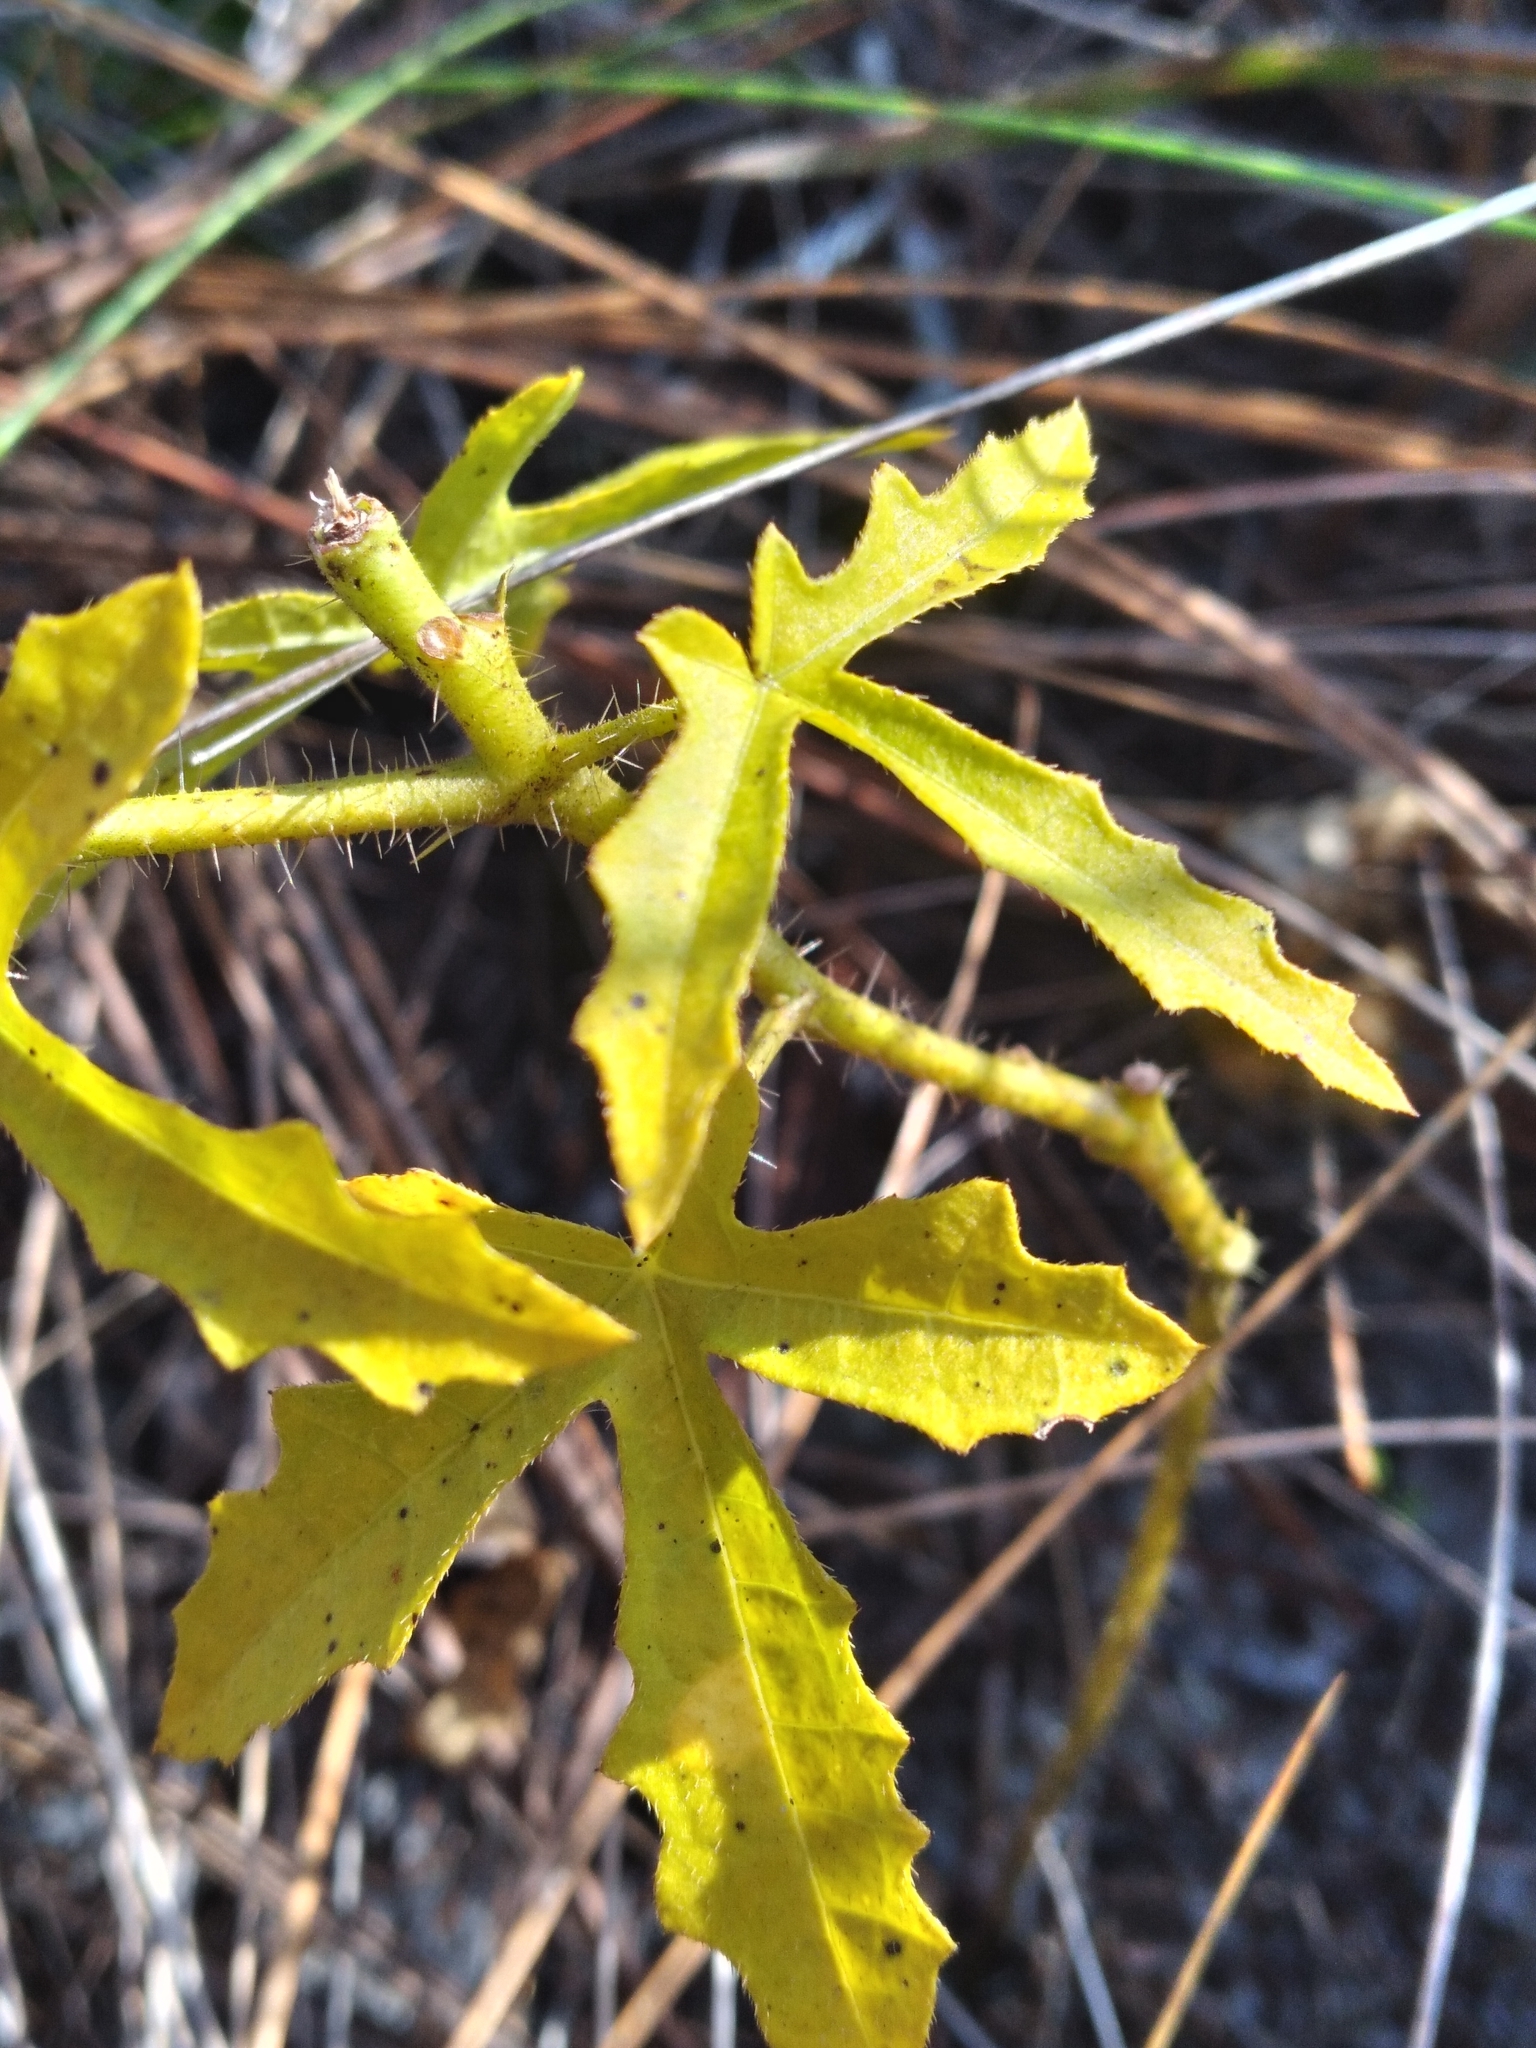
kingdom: Plantae
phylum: Tracheophyta
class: Magnoliopsida
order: Malpighiales
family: Euphorbiaceae
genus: Cnidoscolus
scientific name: Cnidoscolus stimulosus
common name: Bull-nettle
